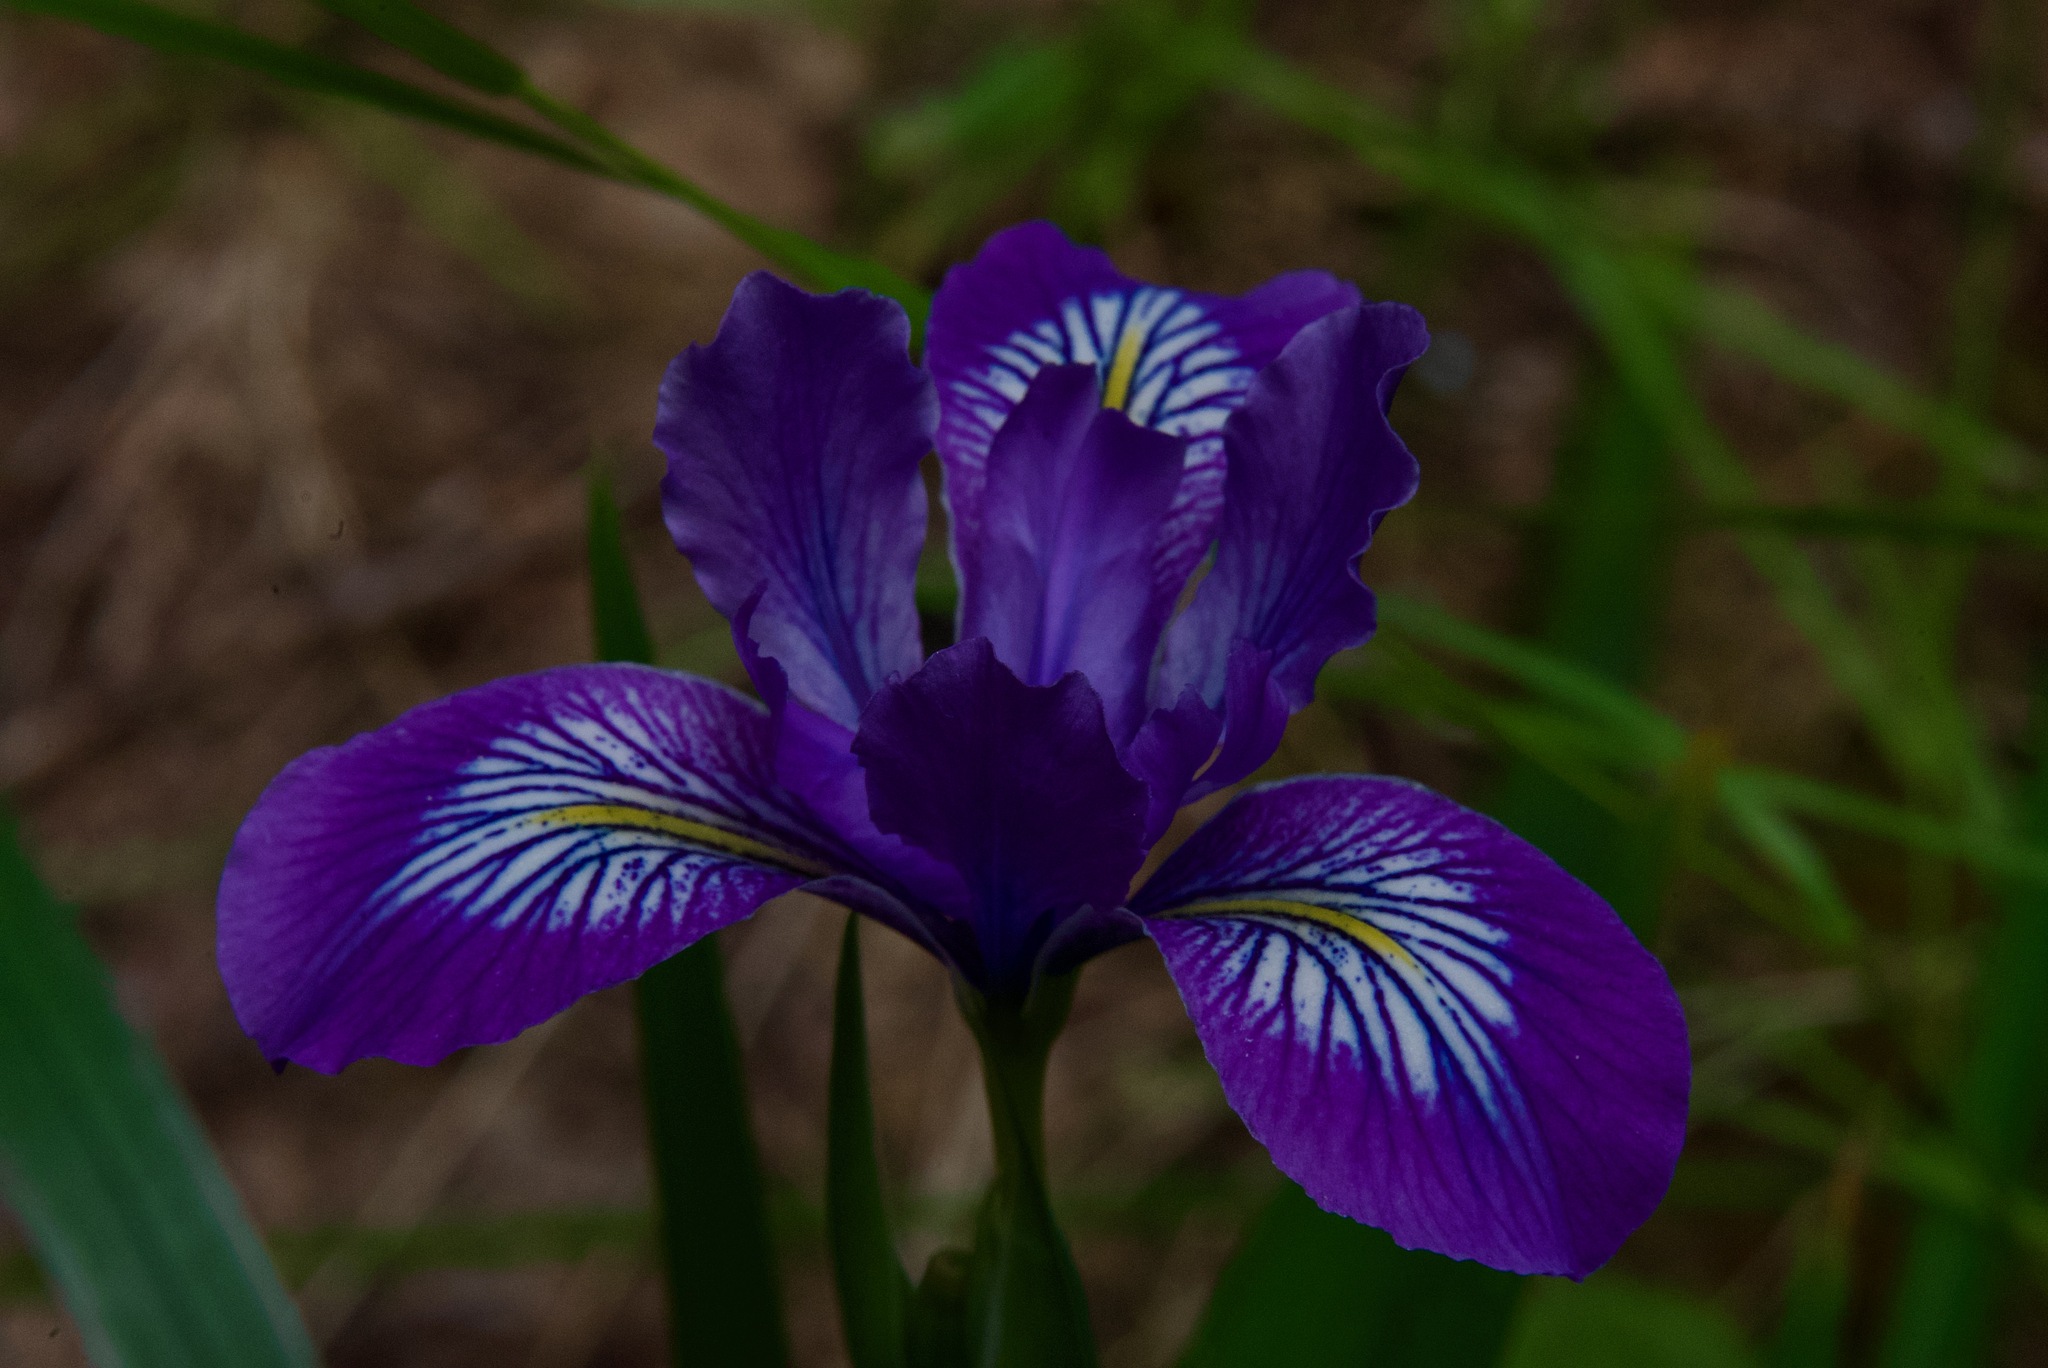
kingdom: Plantae
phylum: Tracheophyta
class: Liliopsida
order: Asparagales
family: Iridaceae
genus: Iris
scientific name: Iris douglasiana
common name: Marin iris
